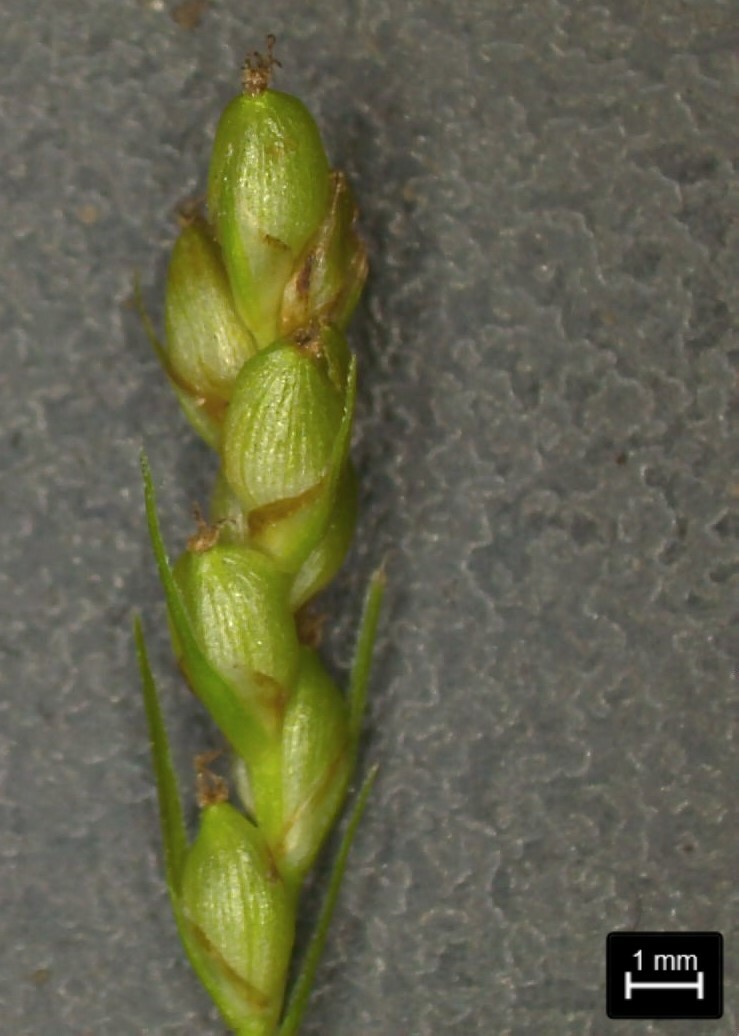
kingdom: Plantae
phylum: Tracheophyta
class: Liliopsida
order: Poales
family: Cyperaceae
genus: Carex
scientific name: Carex corrugata
